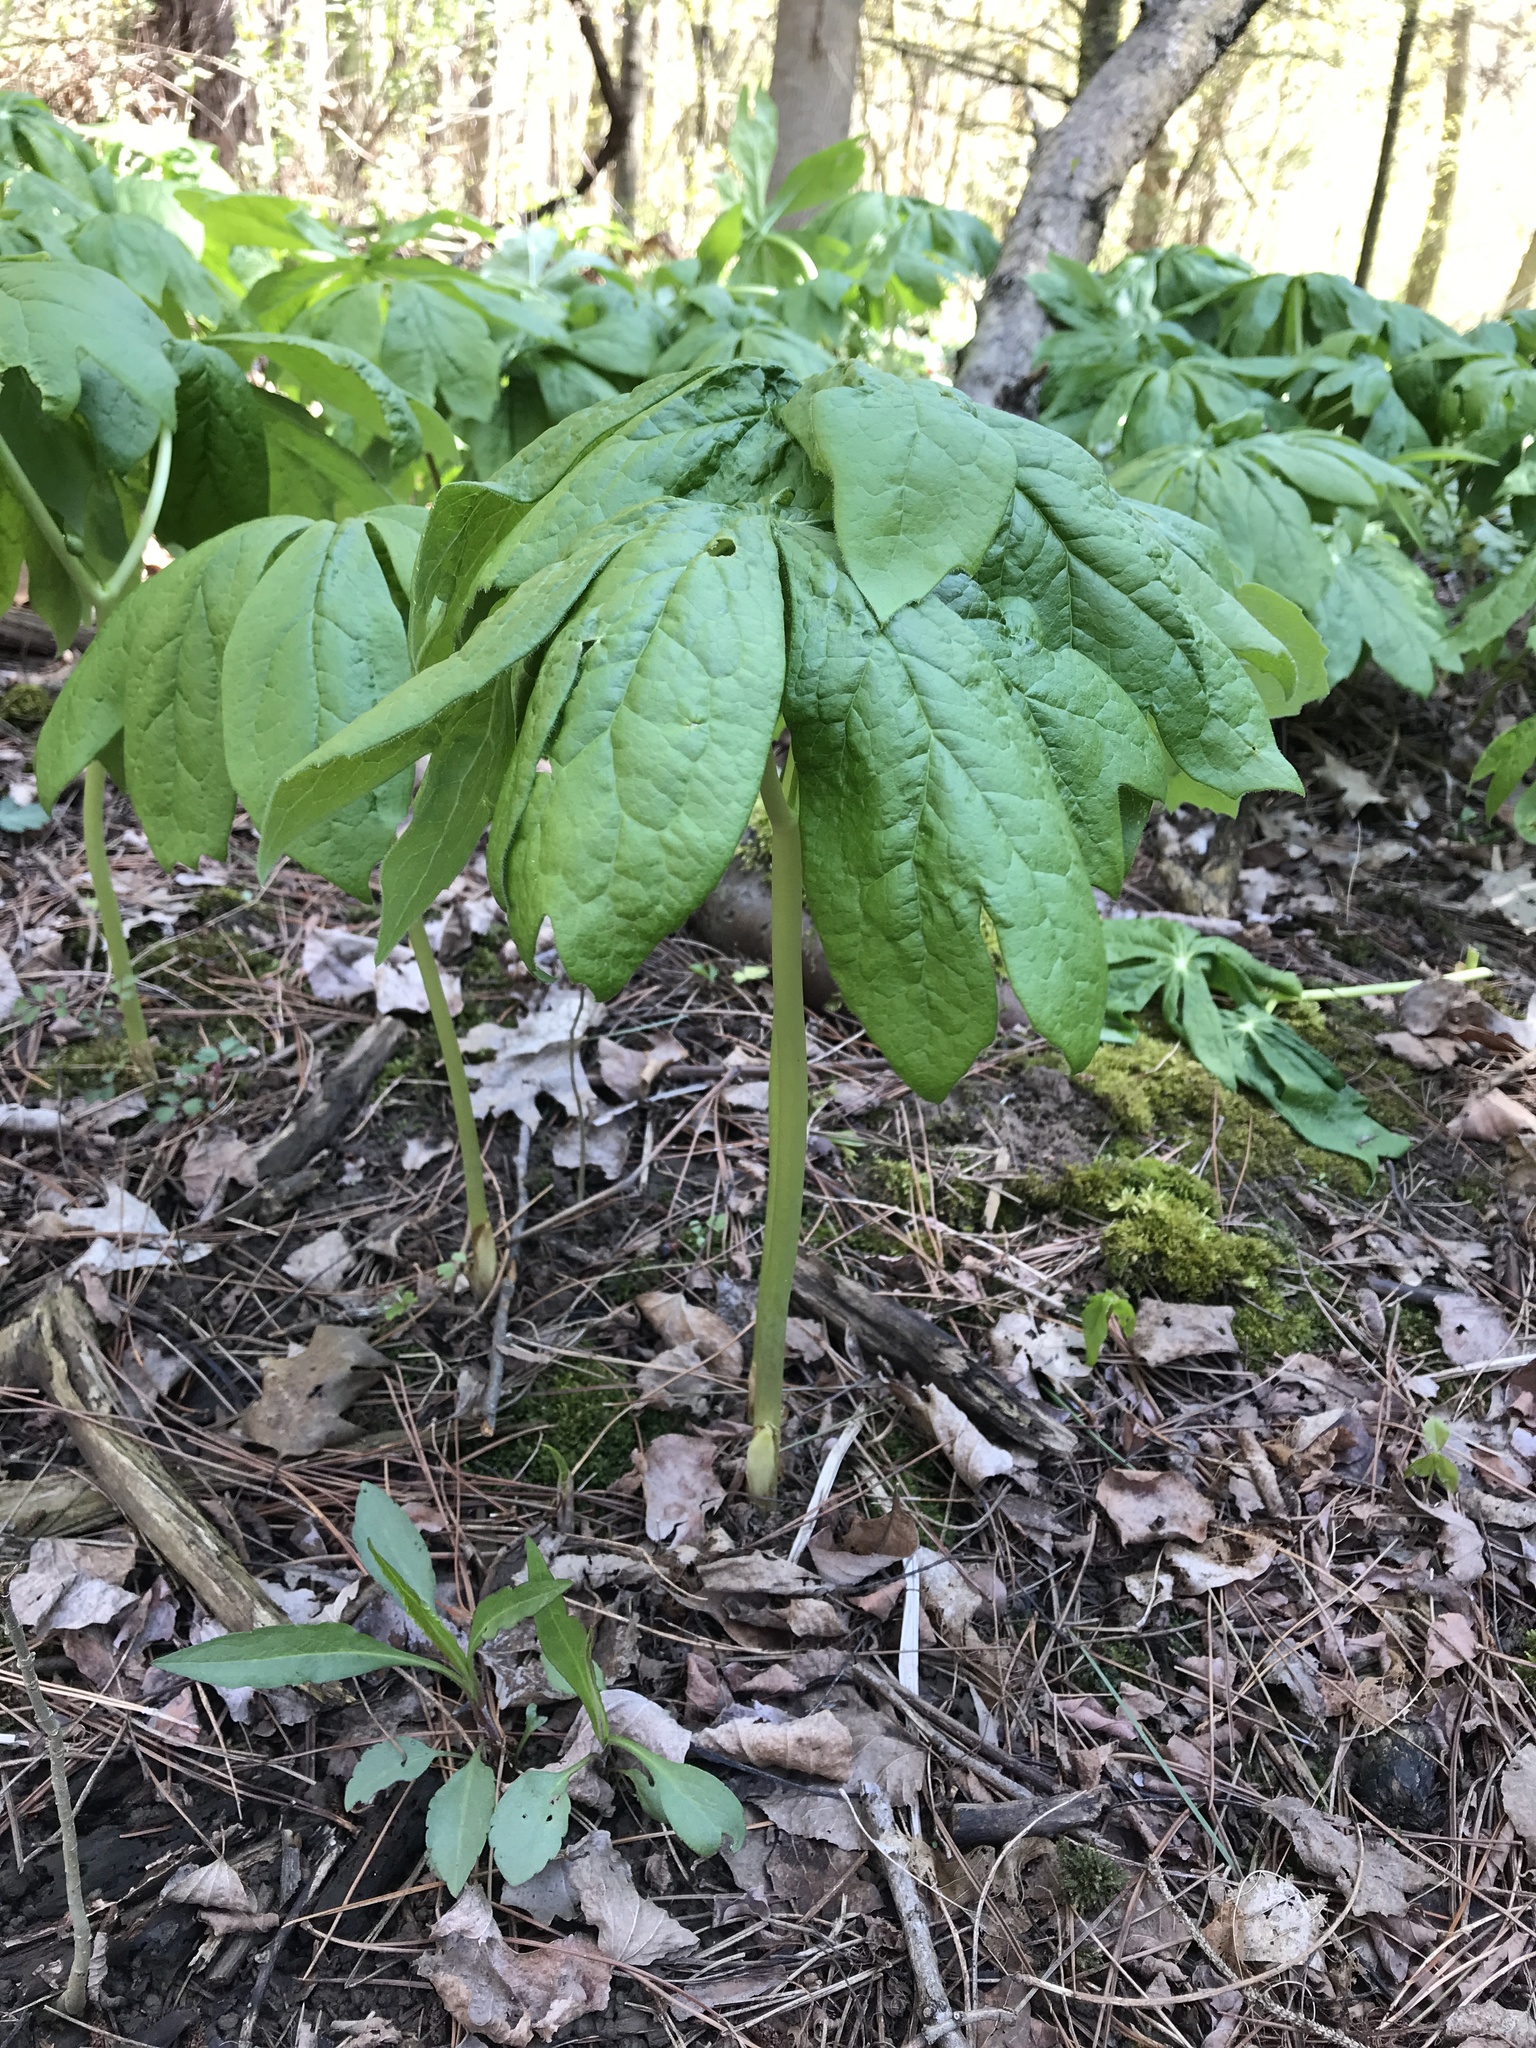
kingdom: Plantae
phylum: Tracheophyta
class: Magnoliopsida
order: Ranunculales
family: Berberidaceae
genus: Podophyllum
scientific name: Podophyllum peltatum
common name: Wild mandrake
